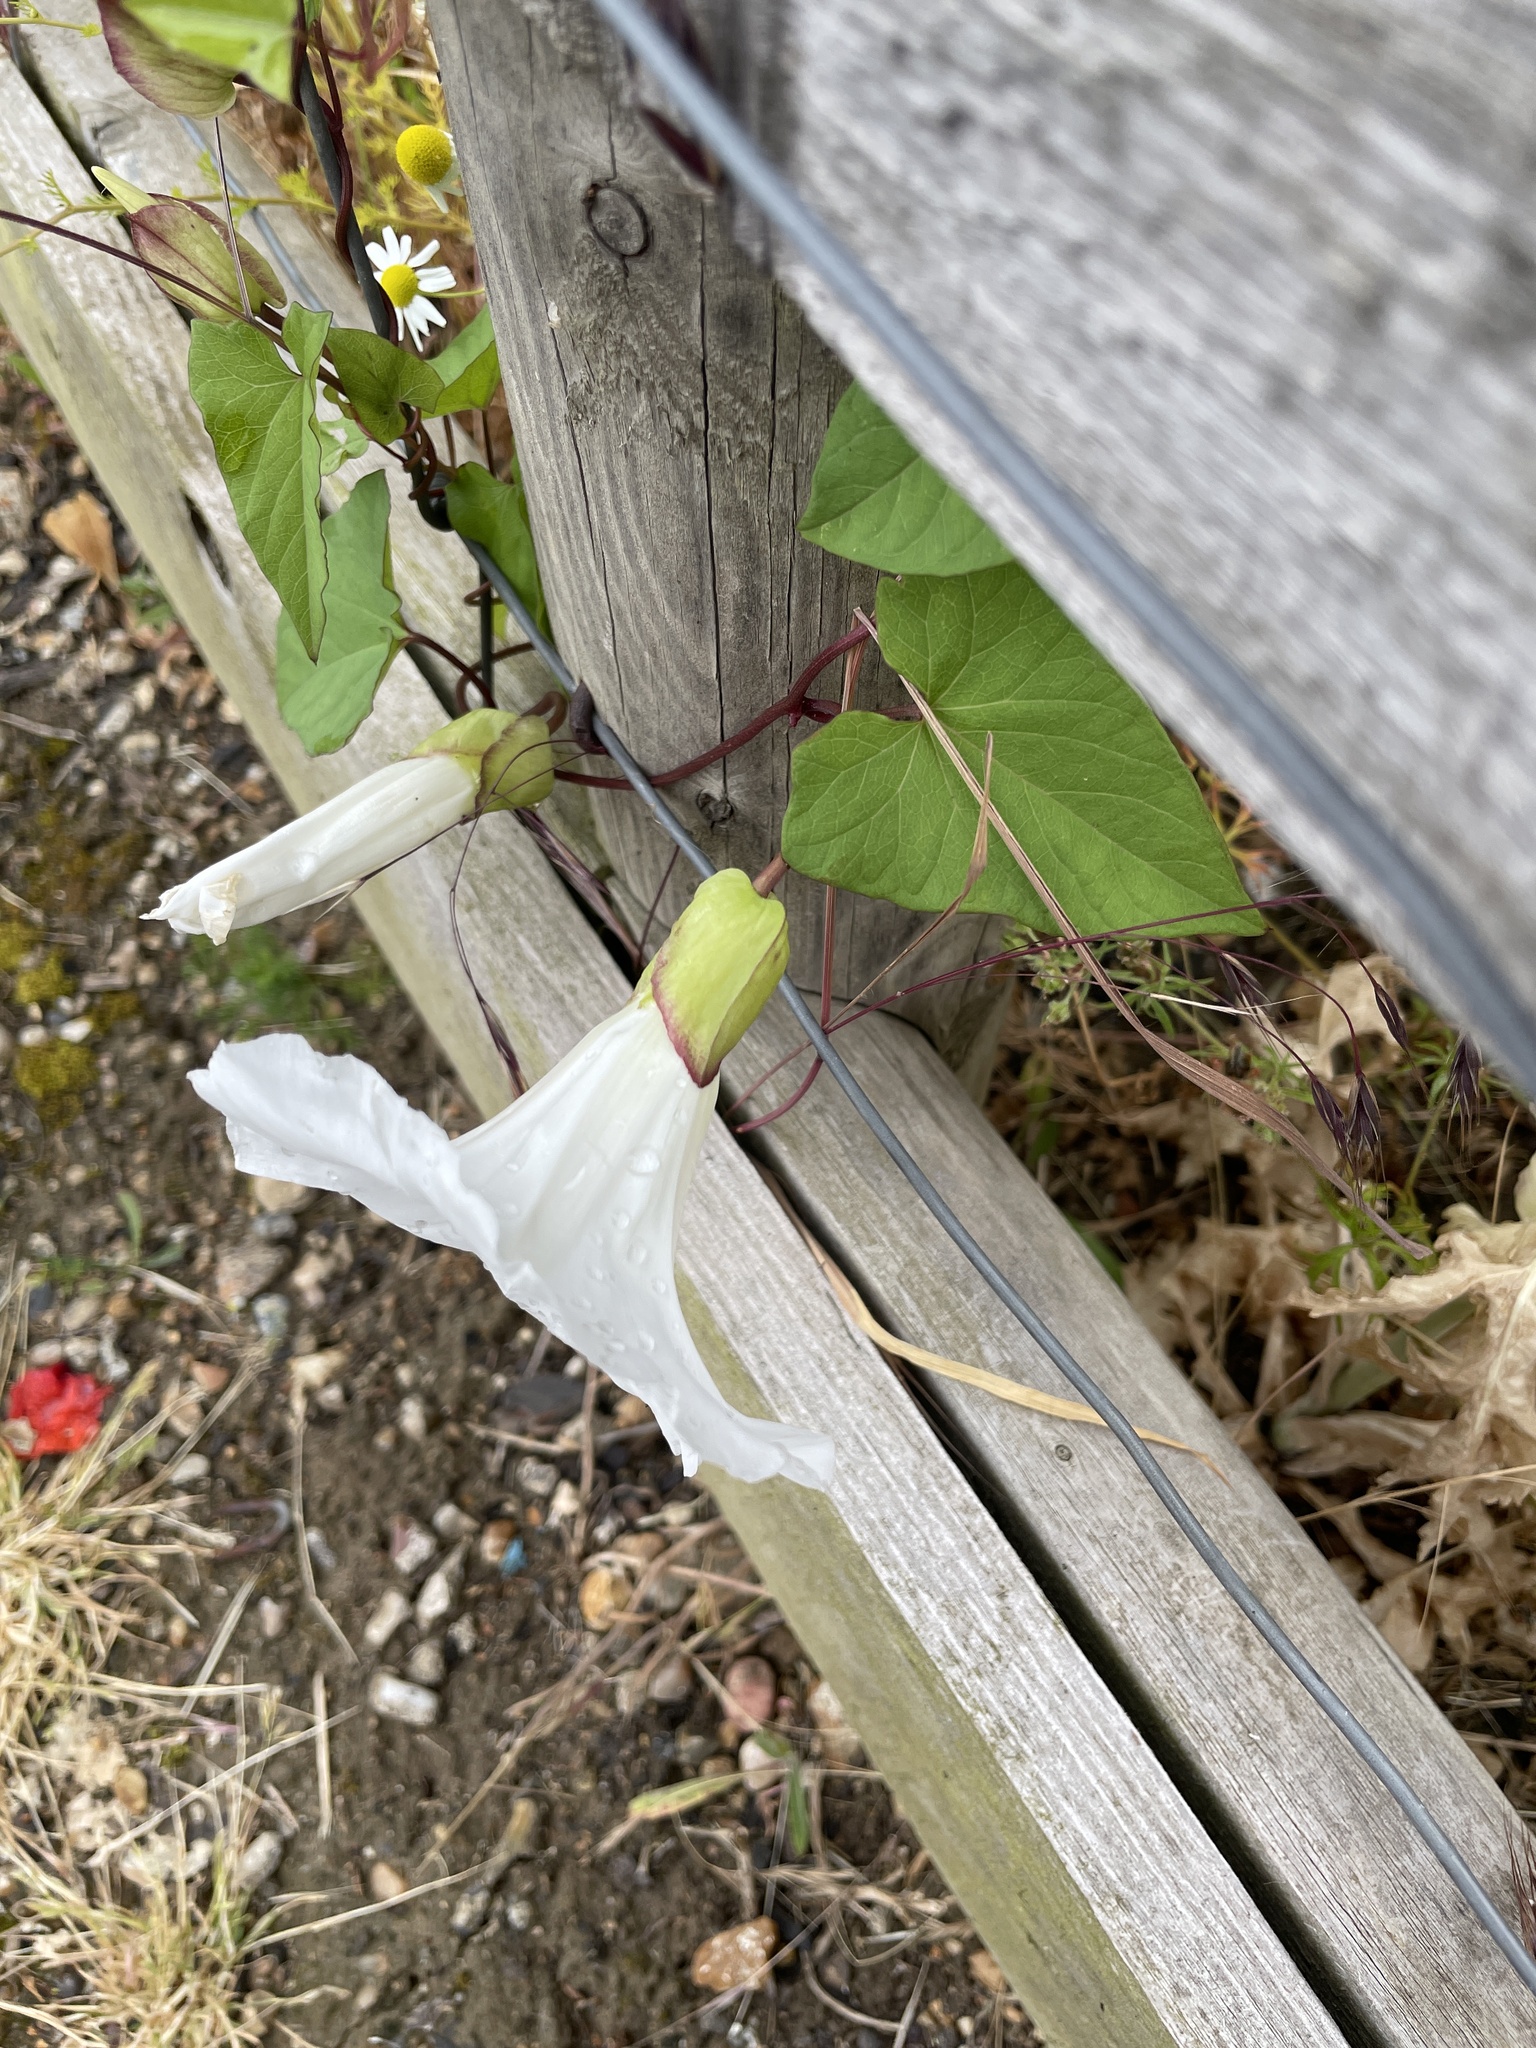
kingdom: Plantae
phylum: Tracheophyta
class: Magnoliopsida
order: Solanales
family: Convolvulaceae
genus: Calystegia
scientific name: Calystegia silvatica
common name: Large bindweed
